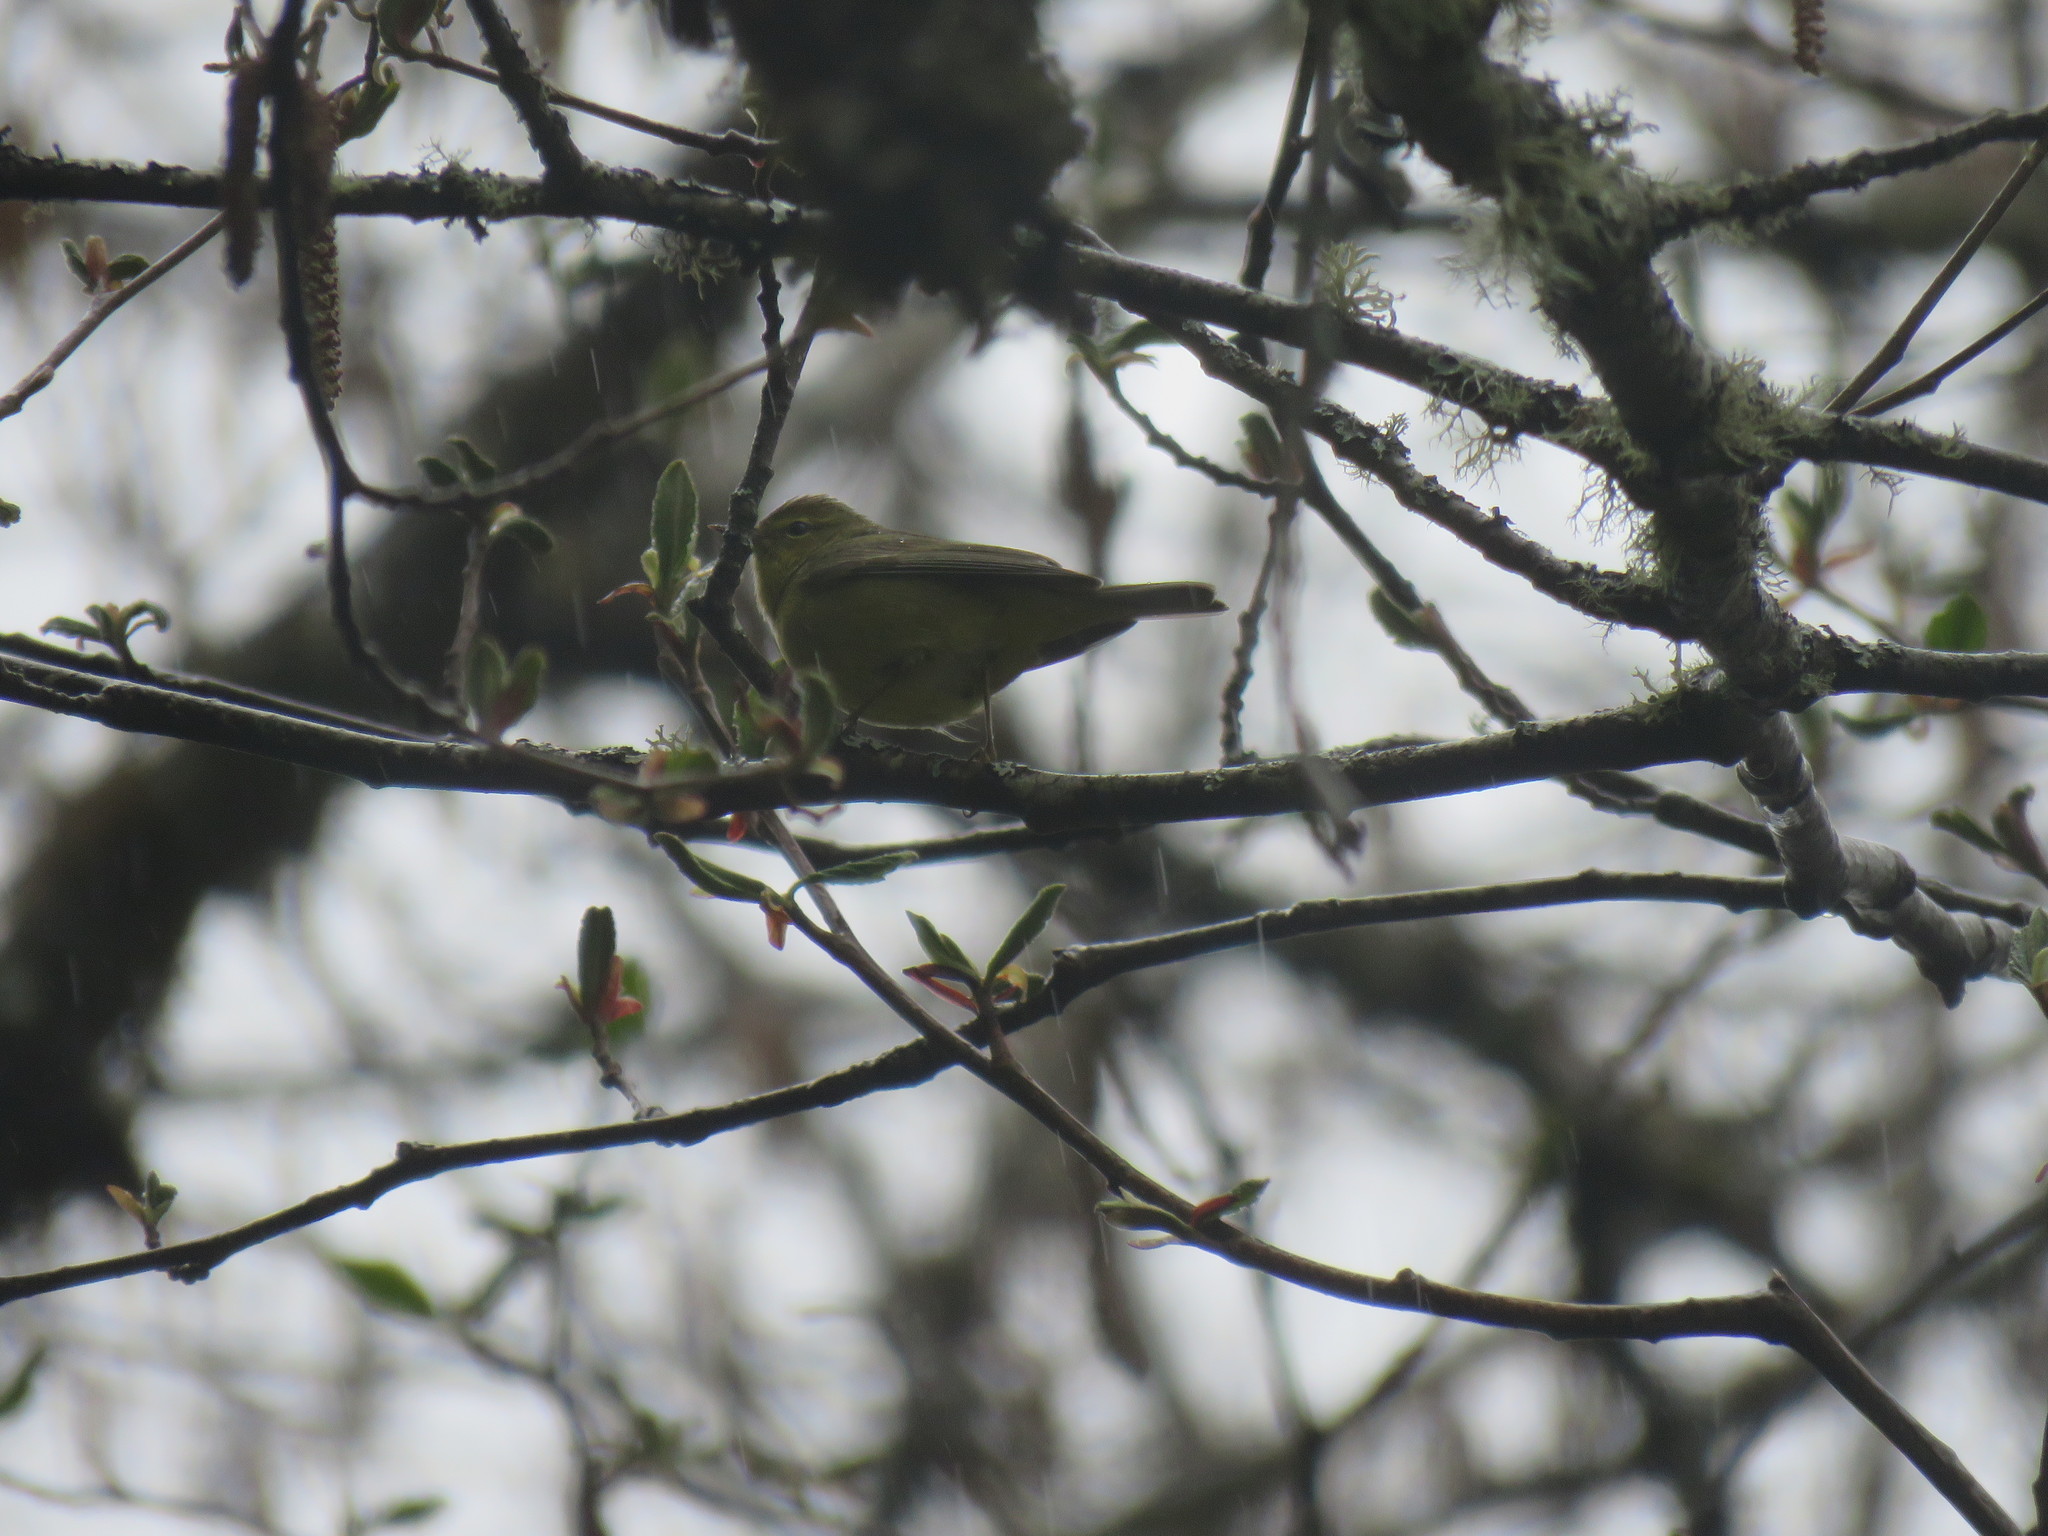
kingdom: Animalia
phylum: Chordata
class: Aves
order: Passeriformes
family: Parulidae
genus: Leiothlypis
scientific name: Leiothlypis celata
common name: Orange-crowned warbler
